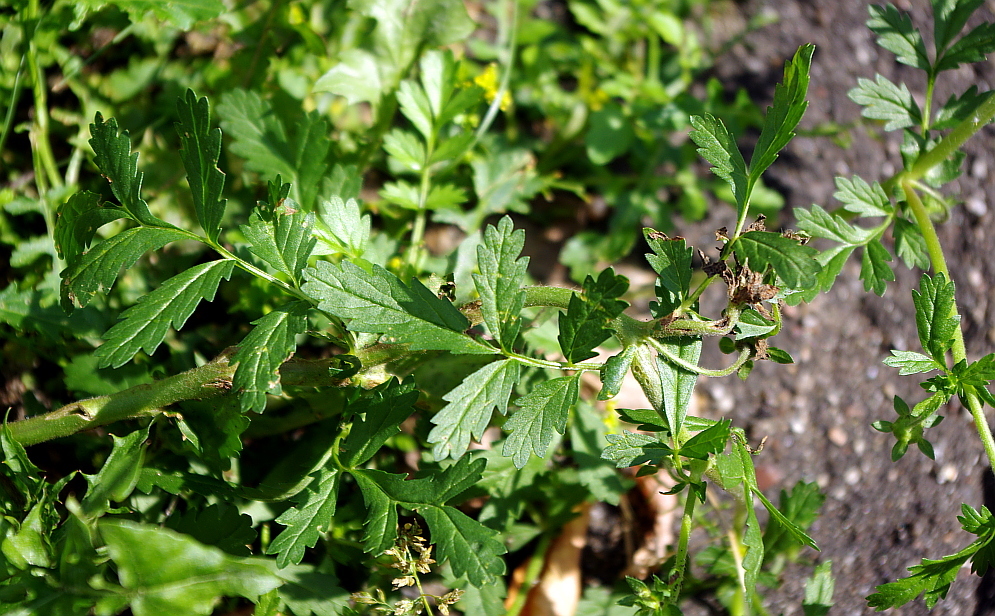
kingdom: Plantae
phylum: Tracheophyta
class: Magnoliopsida
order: Rosales
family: Rosaceae
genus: Potentilla
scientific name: Potentilla supina
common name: Prostrate cinquefoil
